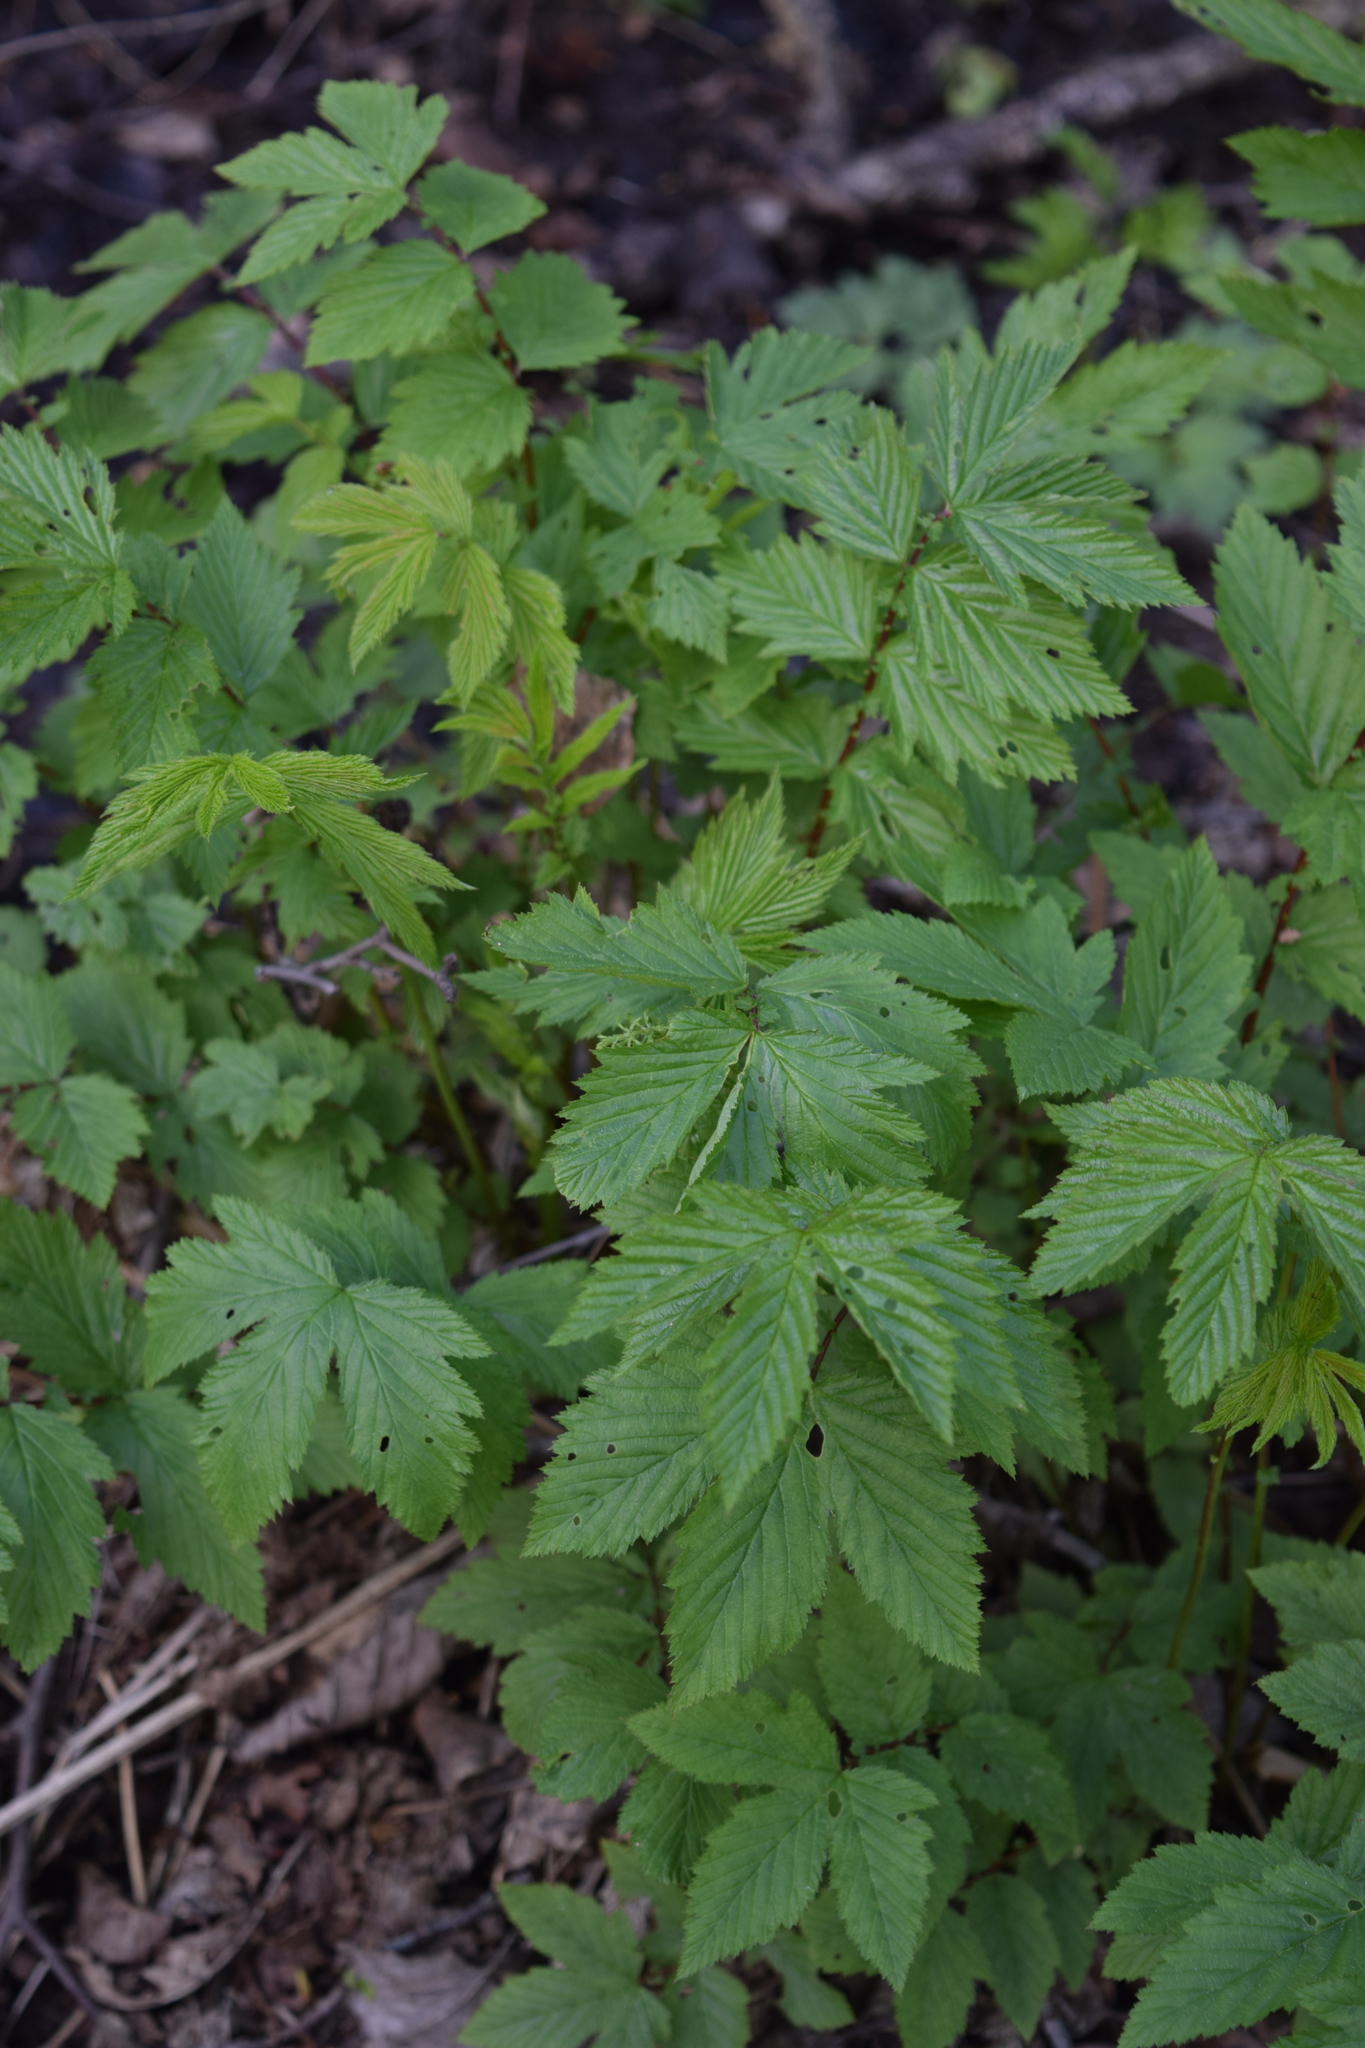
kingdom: Plantae
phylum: Tracheophyta
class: Magnoliopsida
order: Rosales
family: Rosaceae
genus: Filipendula
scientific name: Filipendula ulmaria
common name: Meadowsweet
